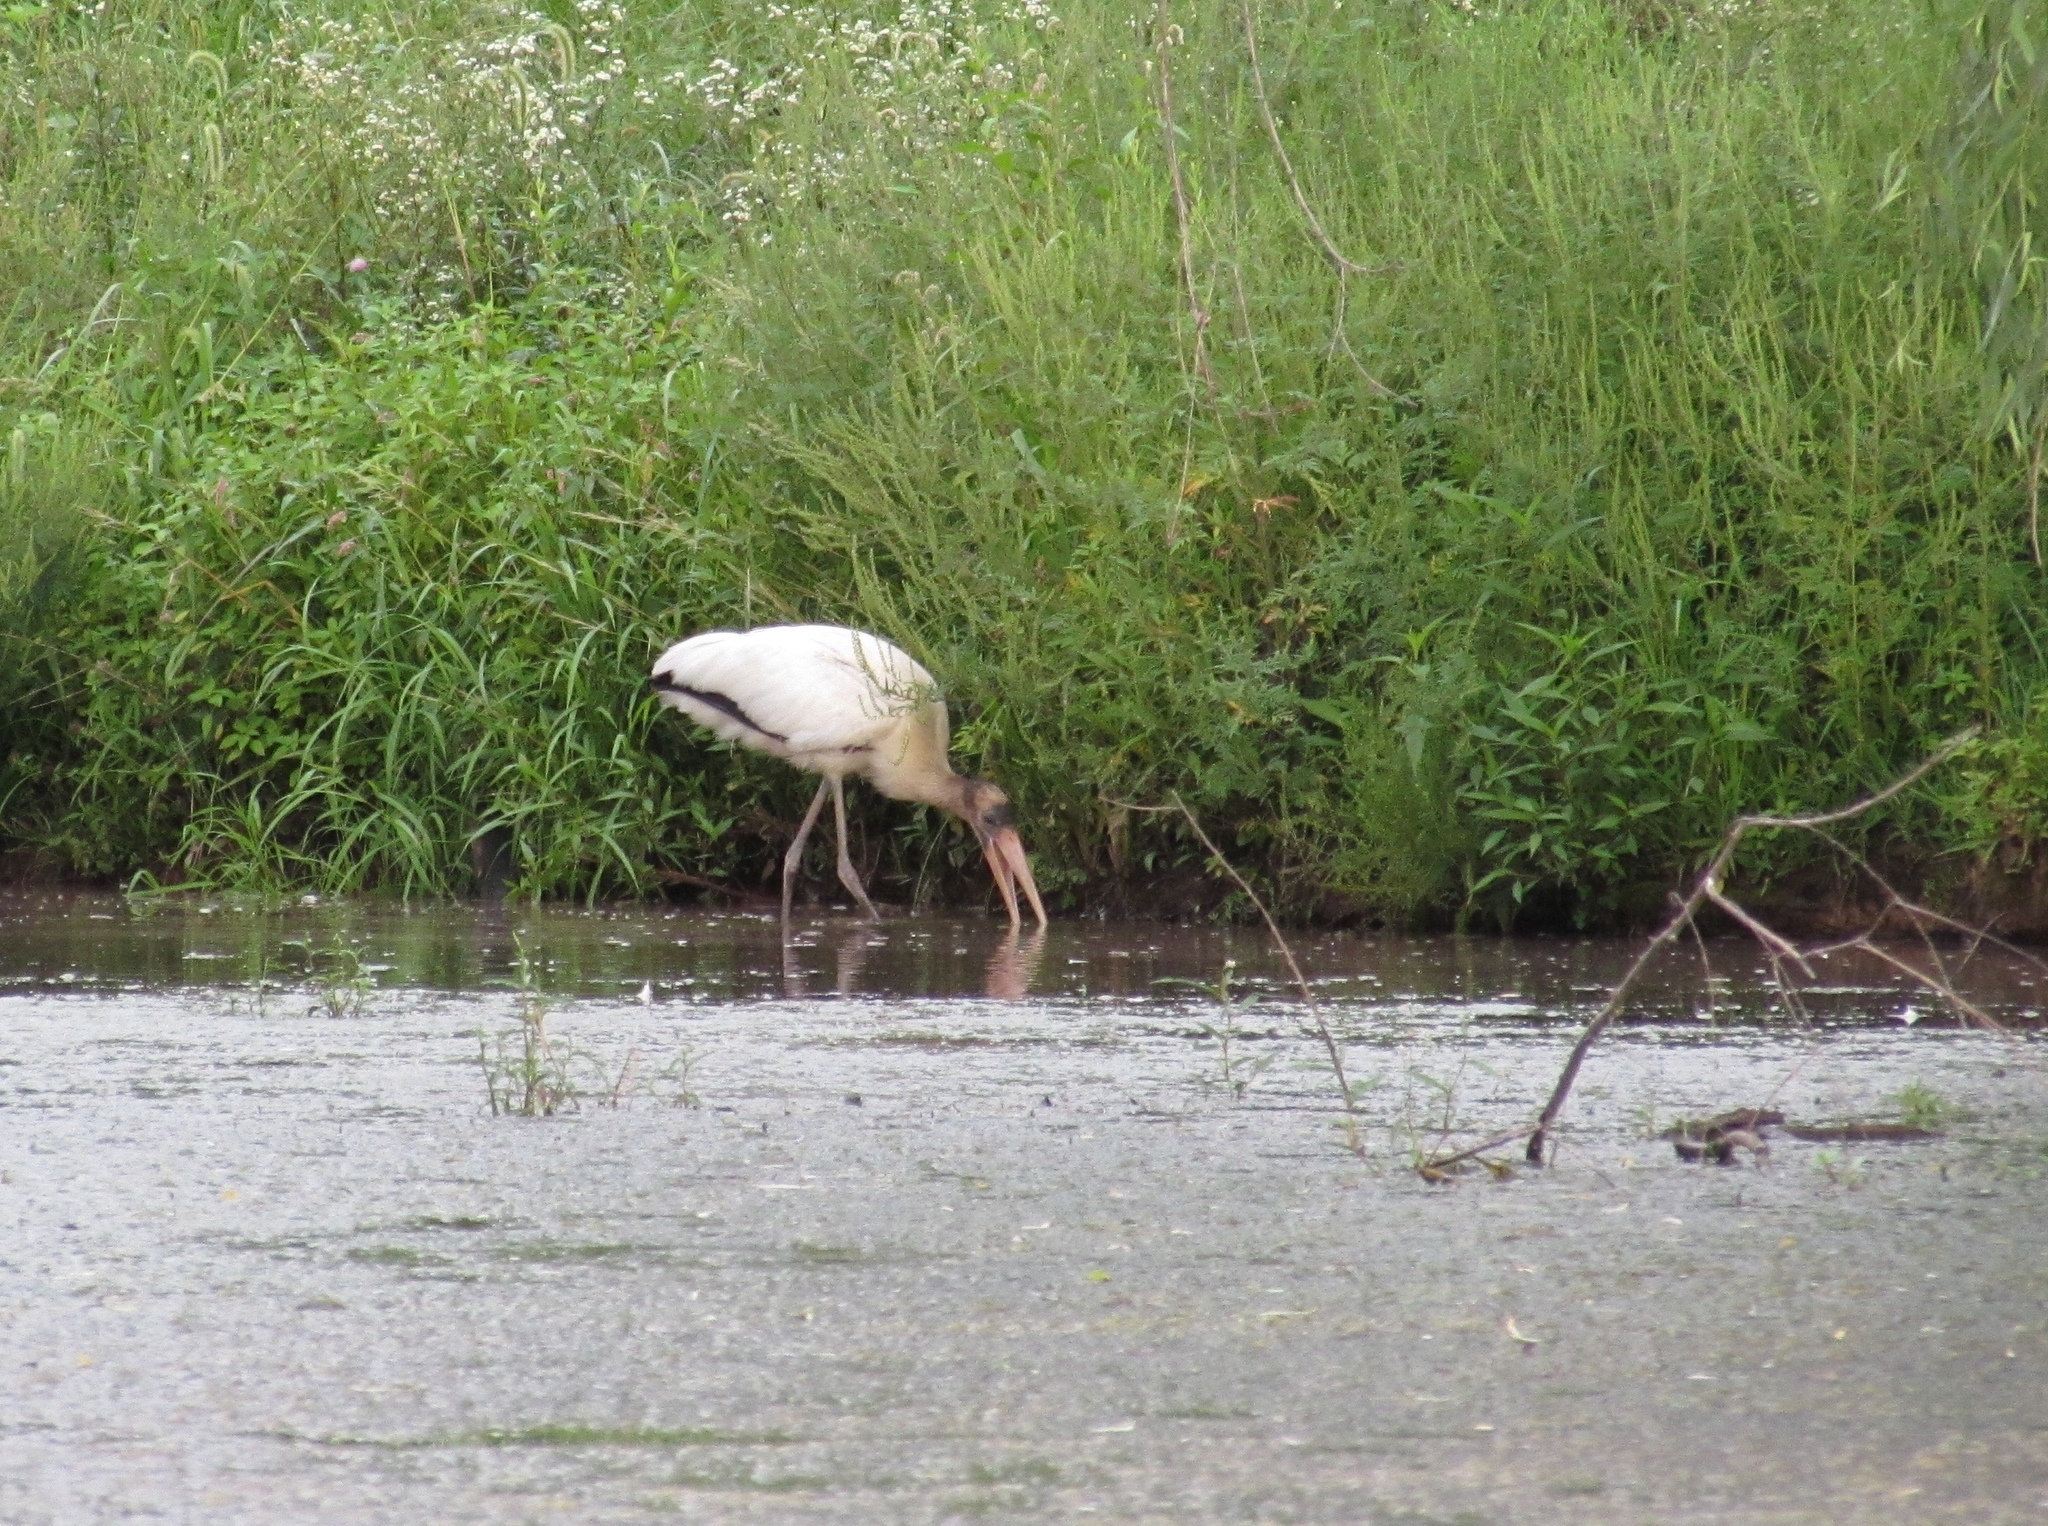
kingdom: Animalia
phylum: Chordata
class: Aves
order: Ciconiiformes
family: Ciconiidae
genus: Mycteria
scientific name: Mycteria americana
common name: Wood stork
